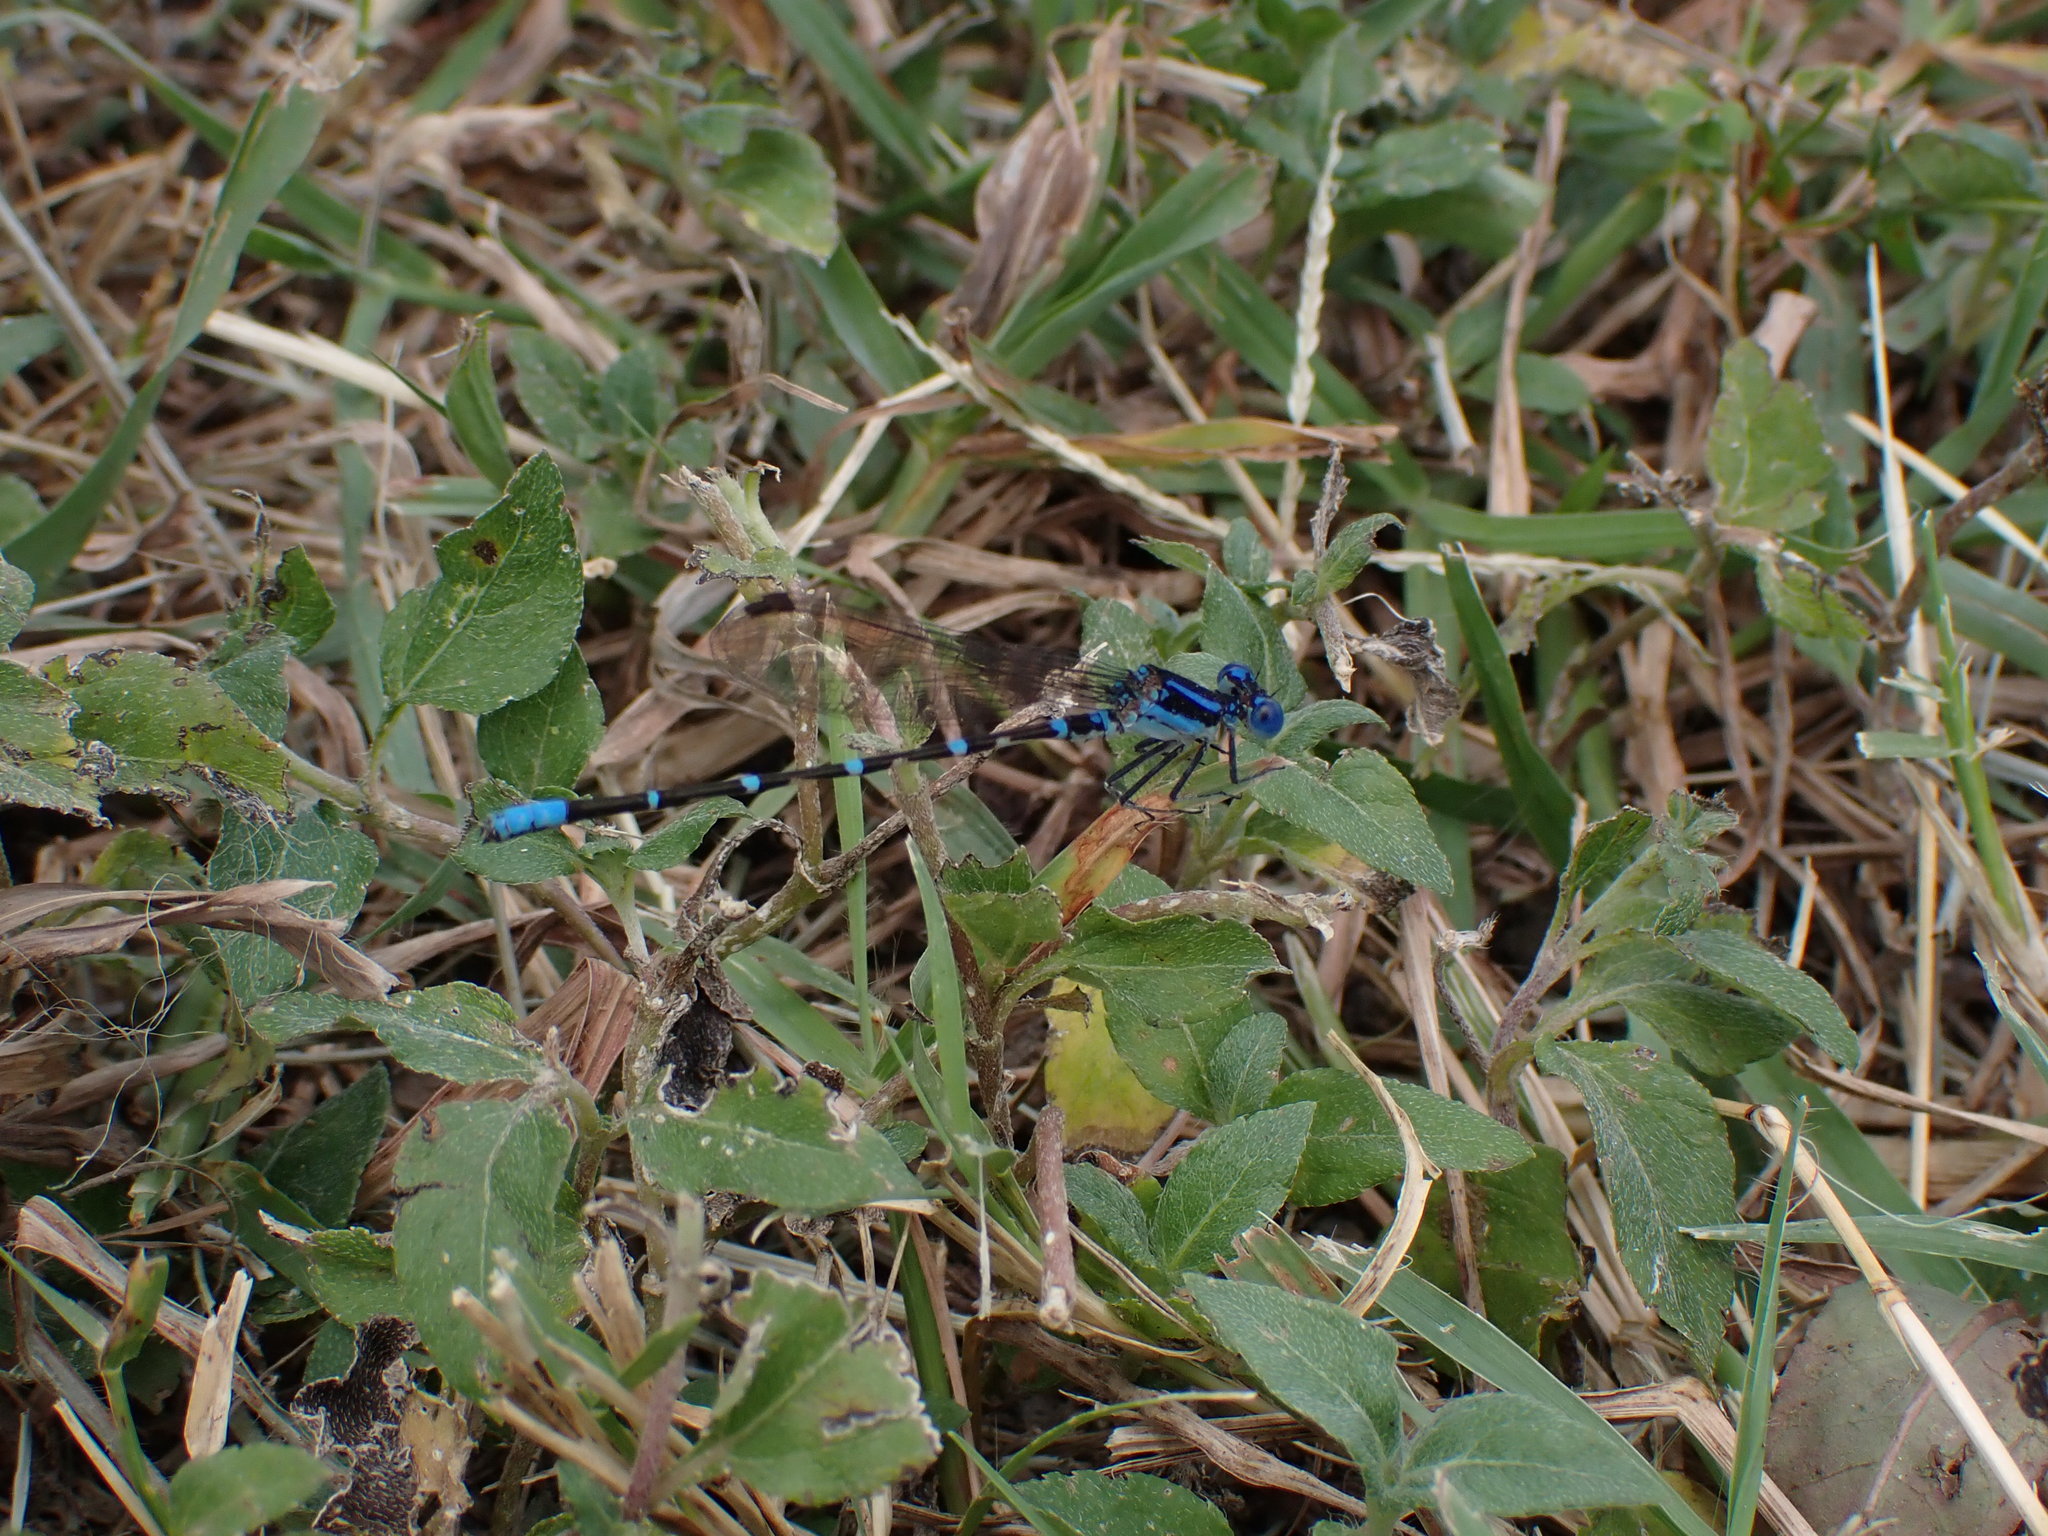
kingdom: Animalia
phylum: Arthropoda
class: Insecta
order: Odonata
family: Coenagrionidae
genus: Argia
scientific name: Argia sedula
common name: Blue-ringed dancer
